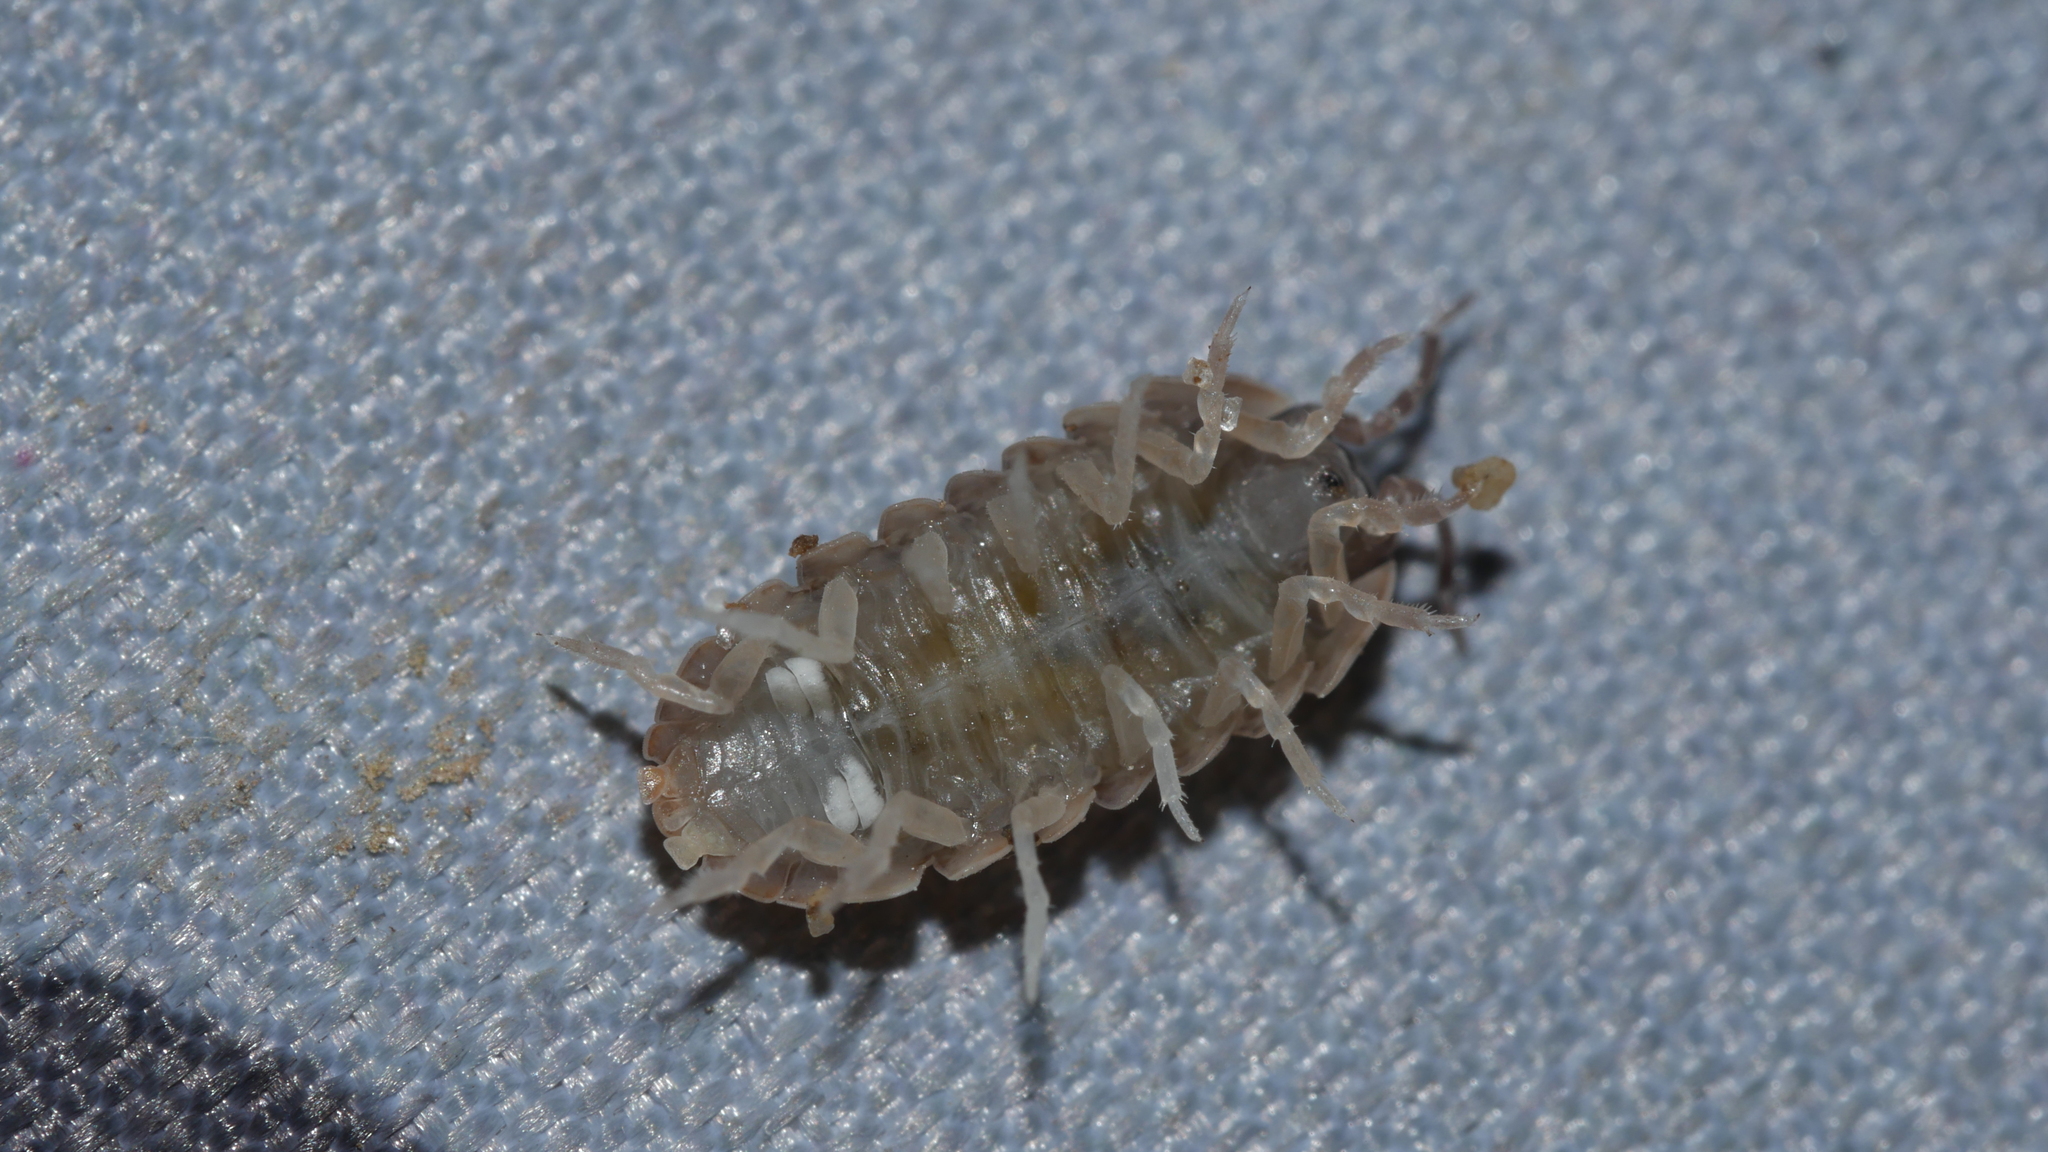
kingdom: Animalia
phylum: Arthropoda
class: Malacostraca
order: Isopoda
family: Armadillidiidae
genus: Armadillidium
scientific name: Armadillidium vulgare
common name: Common pill woodlouse
